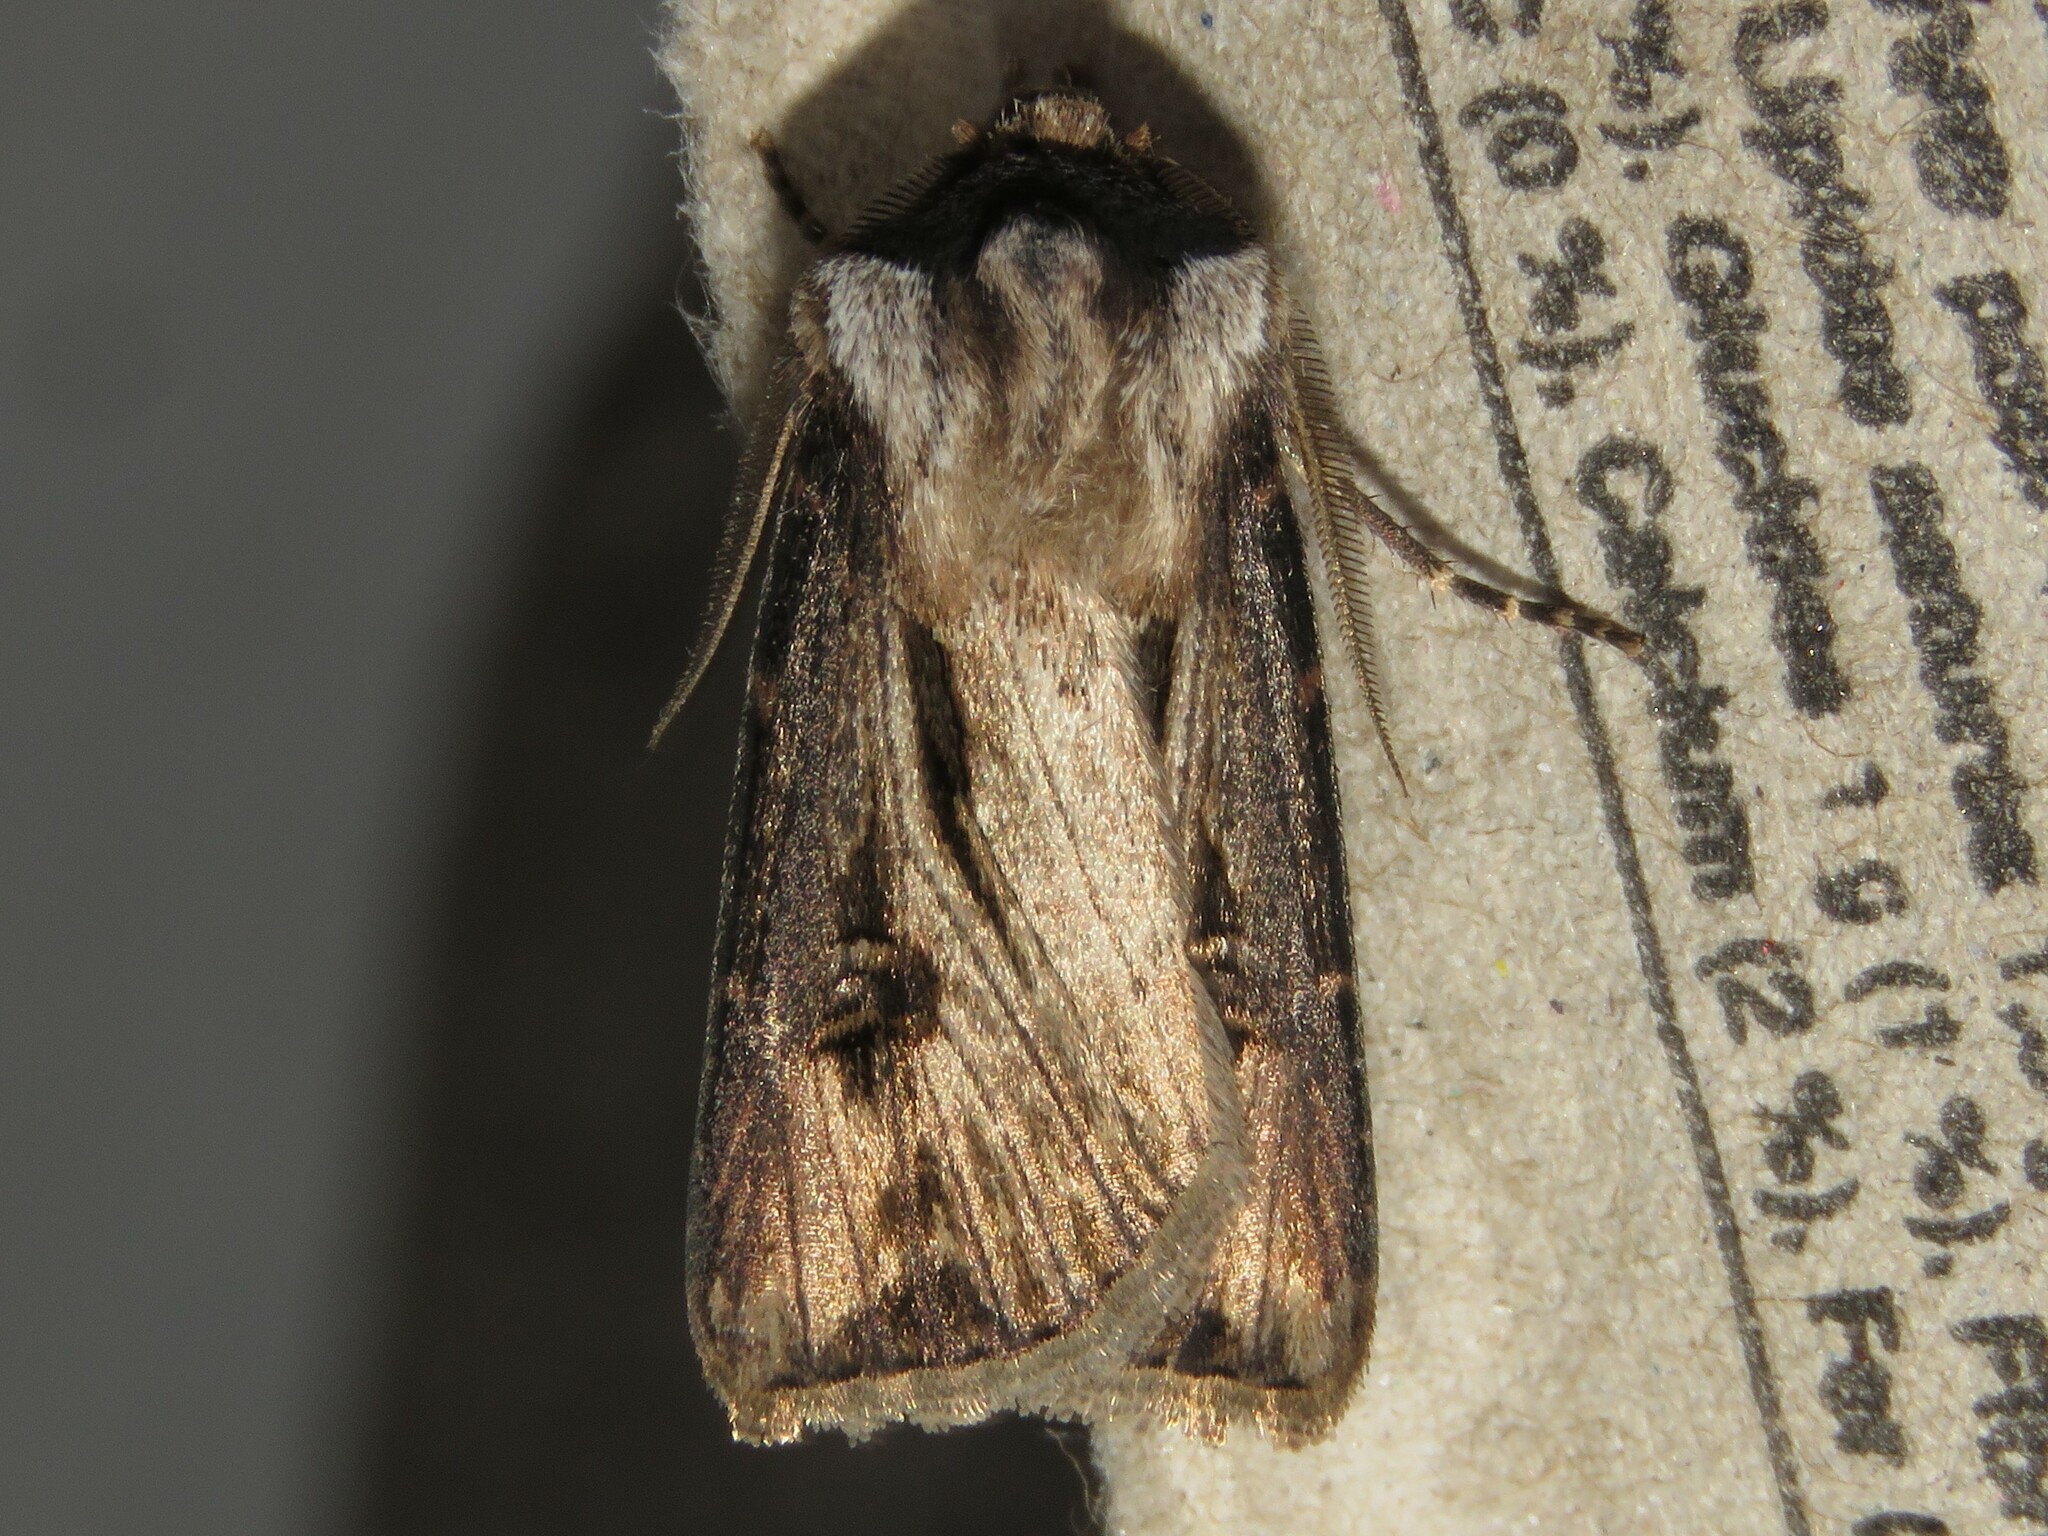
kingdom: Animalia
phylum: Arthropoda
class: Insecta
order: Lepidoptera
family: Noctuidae
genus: Agrotis
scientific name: Agrotis venerabilis
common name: Venerable dart
